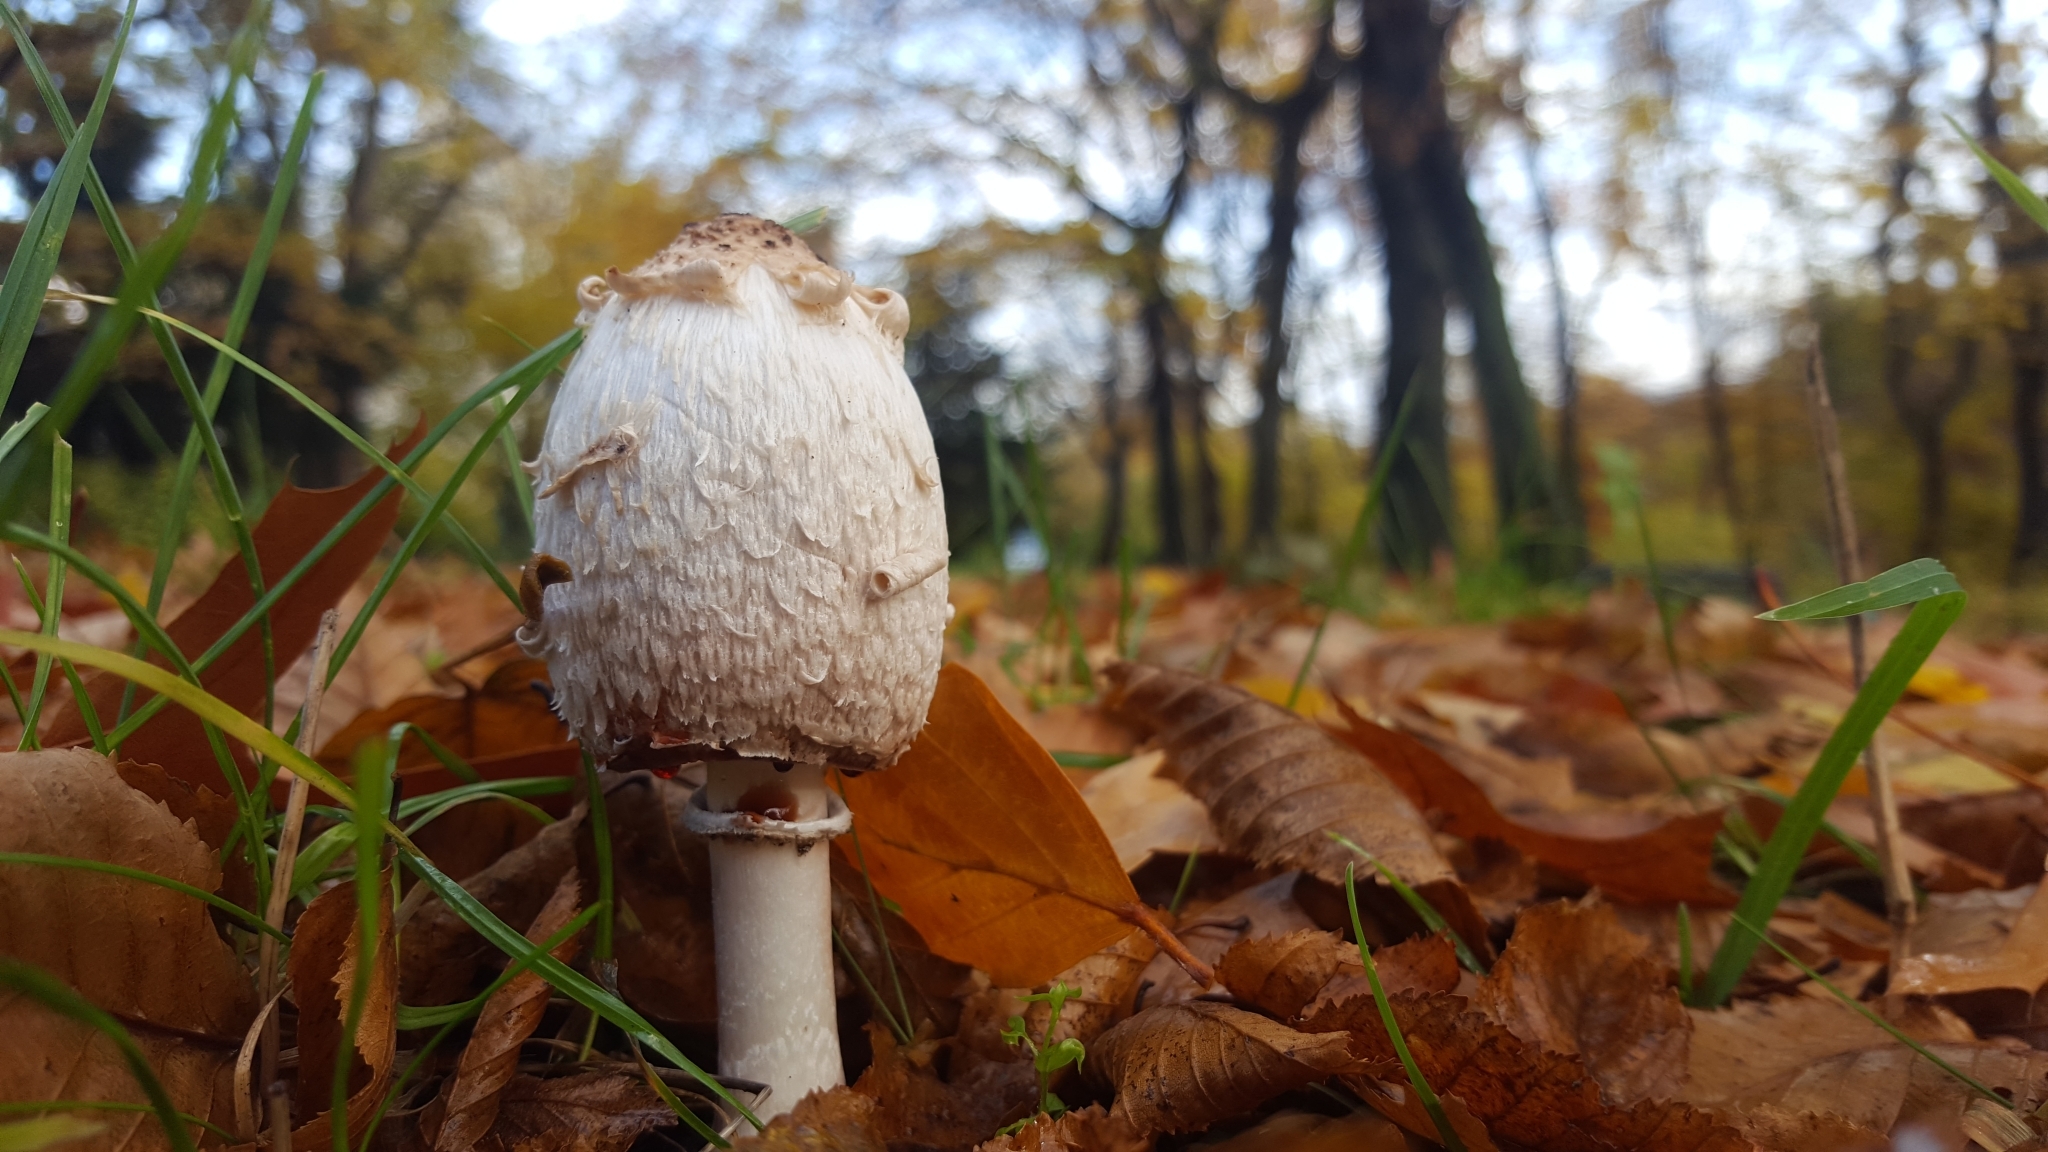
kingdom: Fungi
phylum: Basidiomycota
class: Agaricomycetes
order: Agaricales
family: Agaricaceae
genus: Coprinus
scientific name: Coprinus comatus
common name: Lawyer's wig
